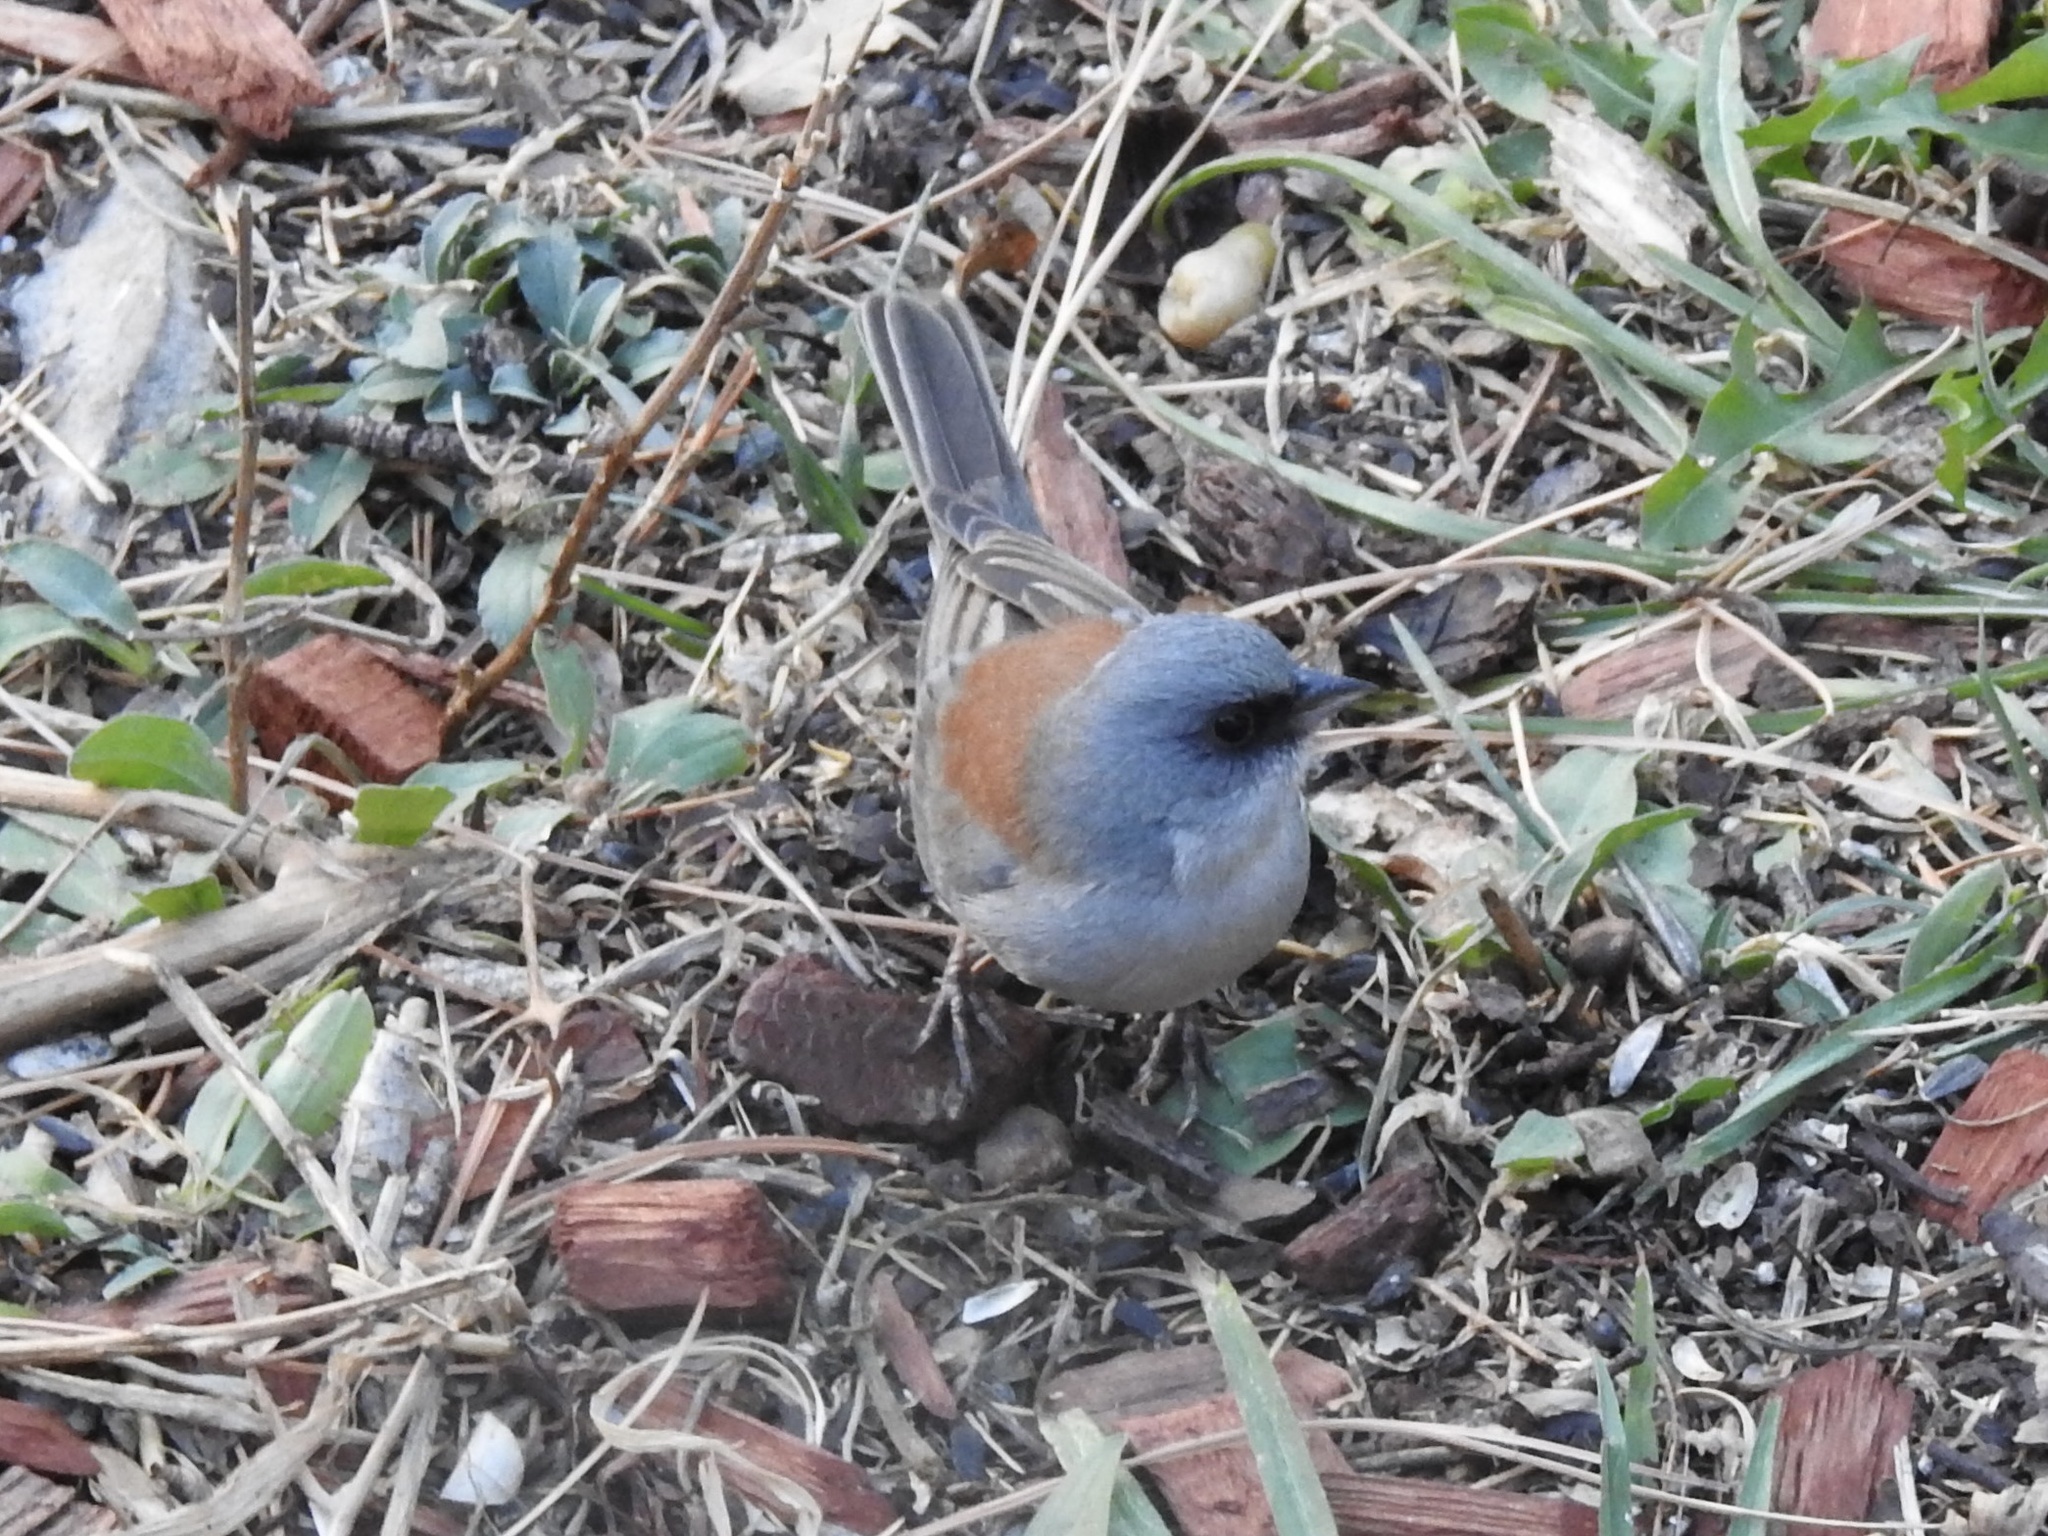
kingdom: Animalia
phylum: Chordata
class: Aves
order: Passeriformes
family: Passerellidae
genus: Junco
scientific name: Junco hyemalis
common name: Dark-eyed junco
